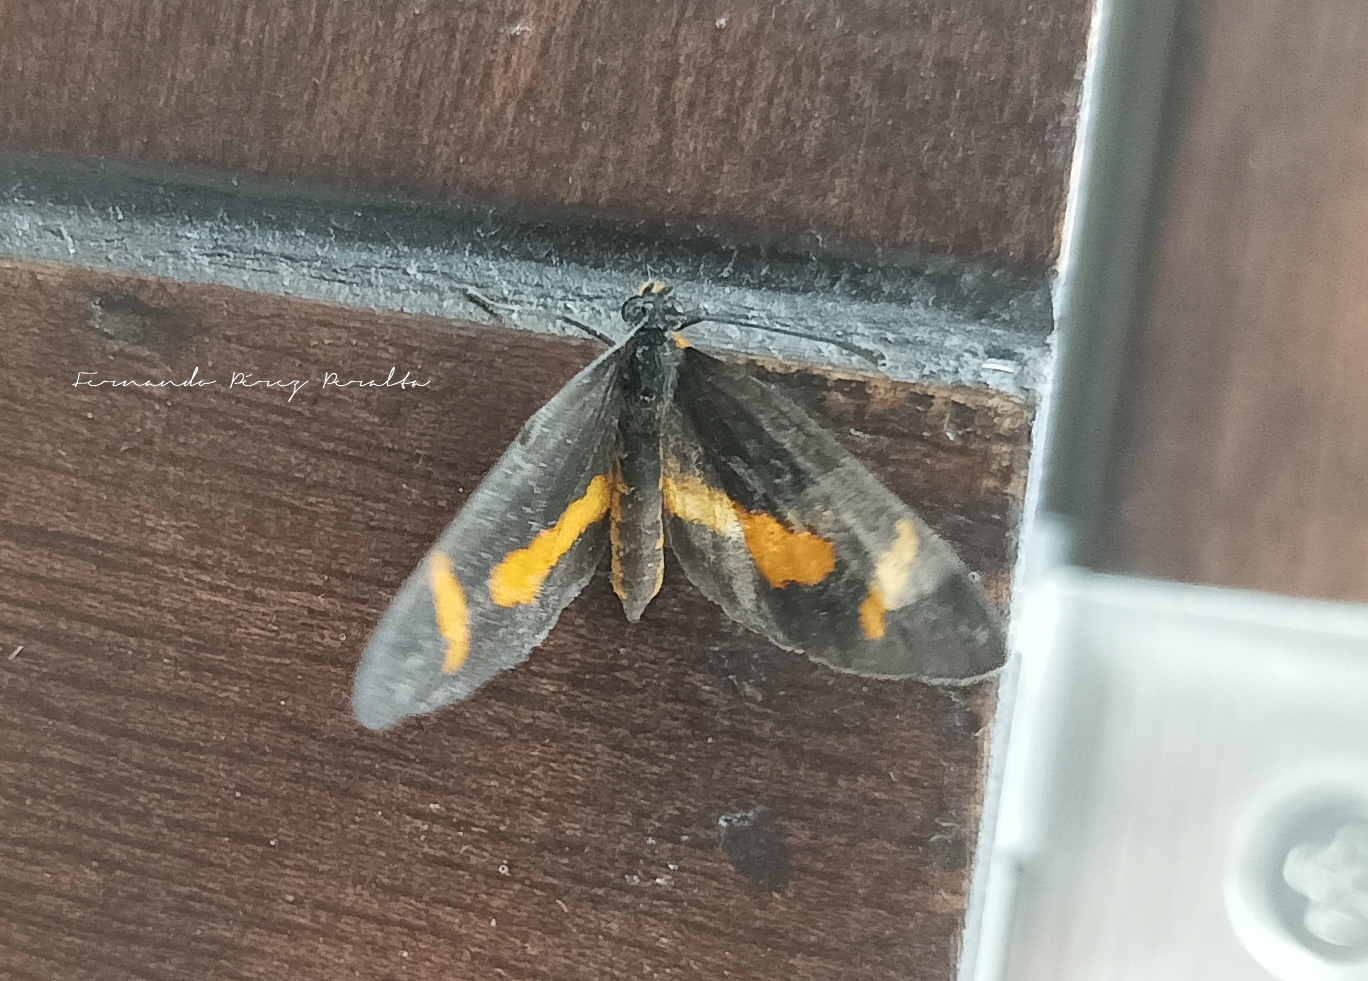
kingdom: Animalia
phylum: Arthropoda
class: Insecta
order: Lepidoptera
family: Nymphalidae
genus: Microtia
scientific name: Microtia elva
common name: Elf
